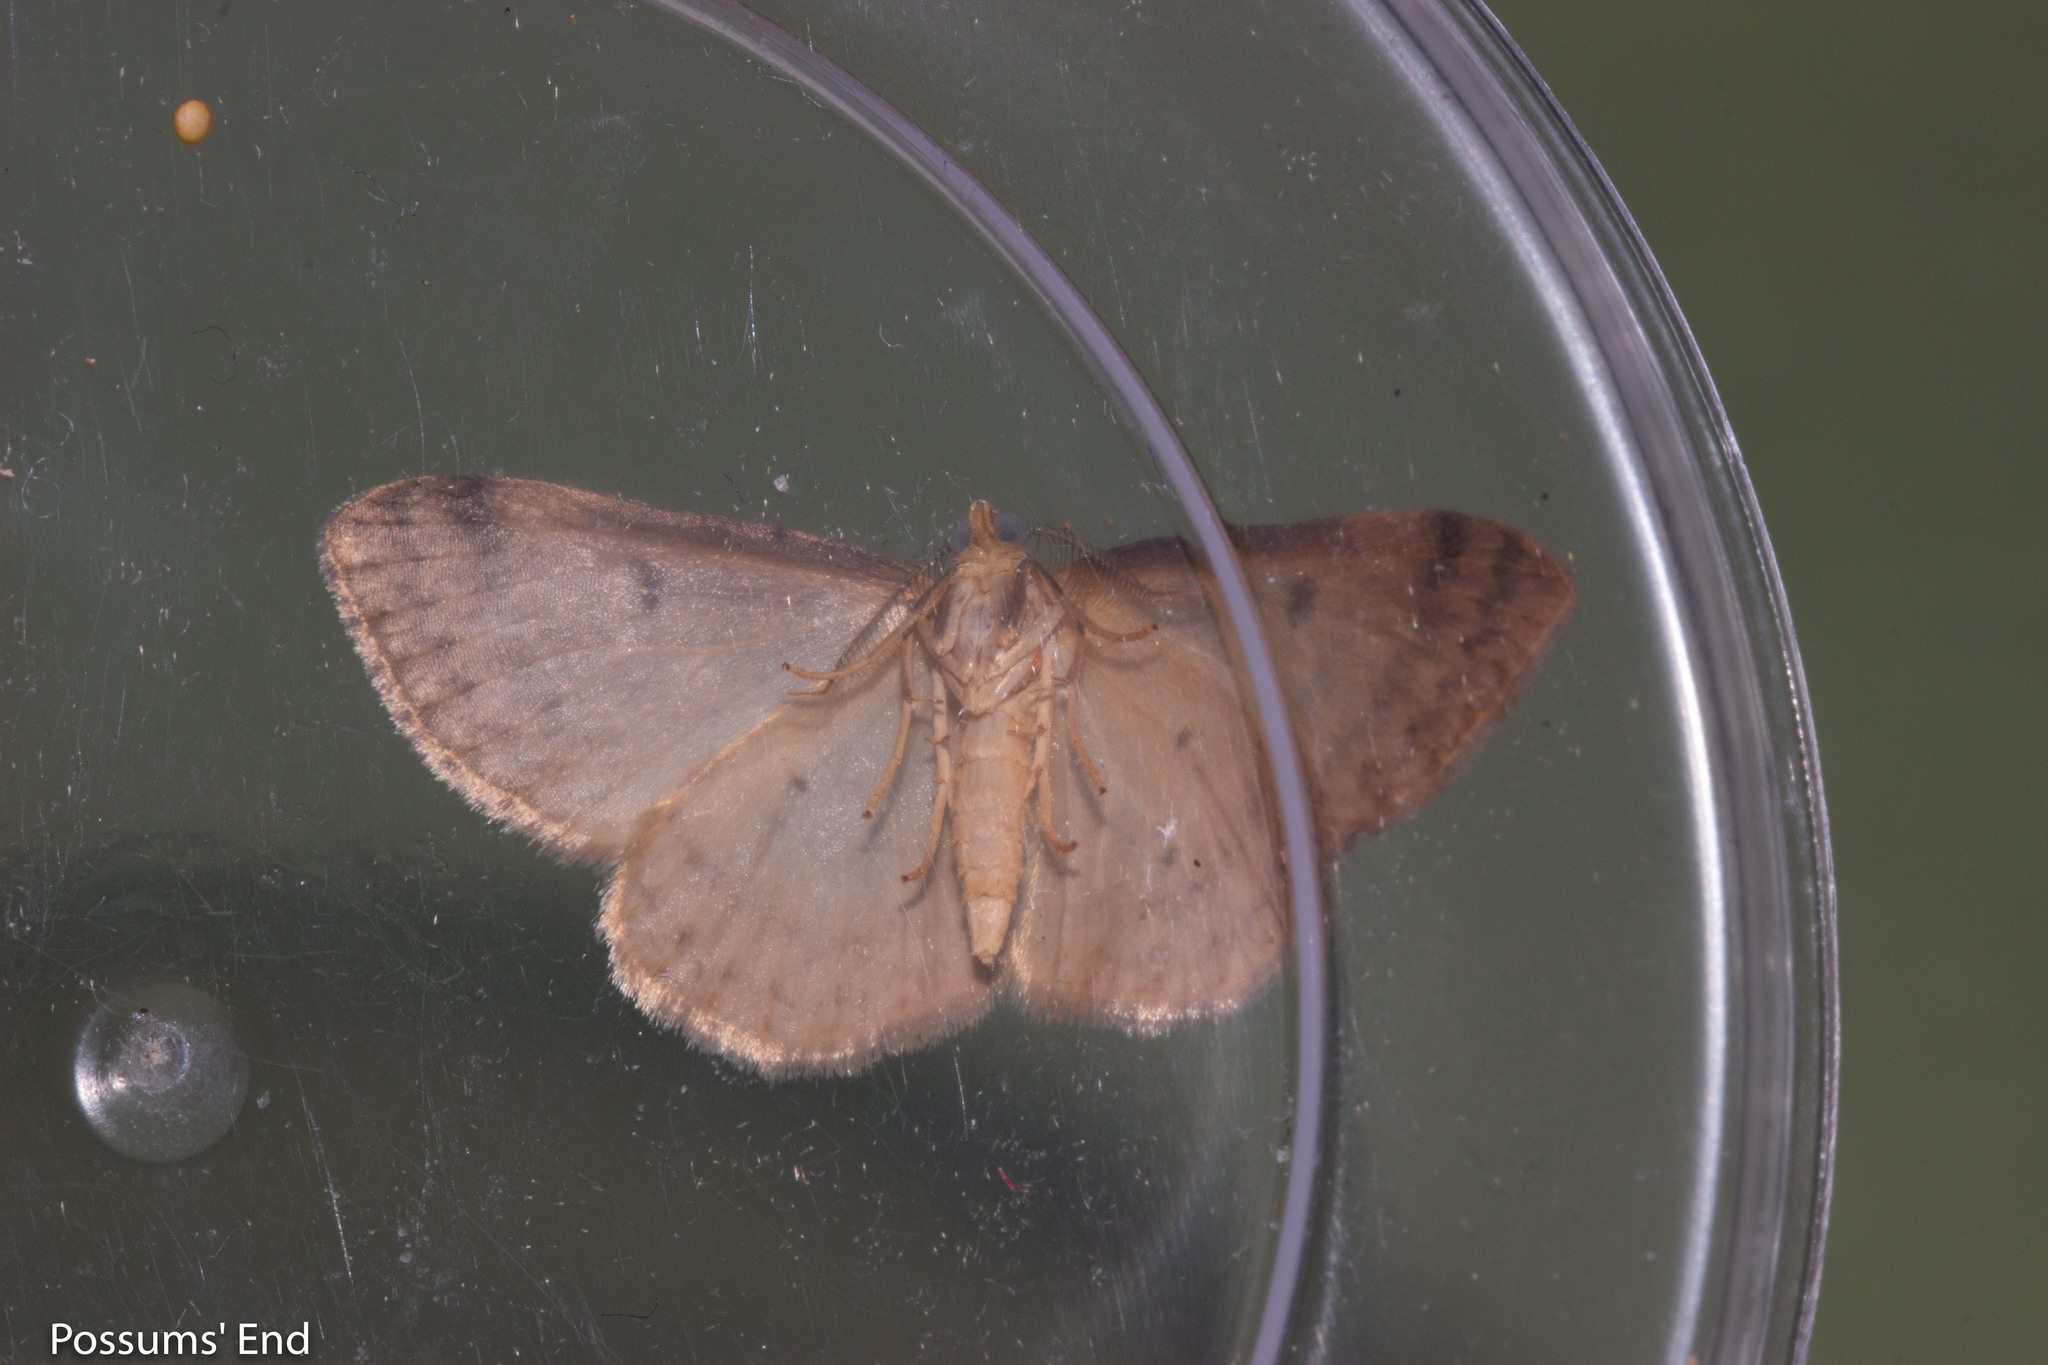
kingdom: Animalia
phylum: Arthropoda
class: Insecta
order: Lepidoptera
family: Geometridae
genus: Epiphryne
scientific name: Epiphryne undosata
